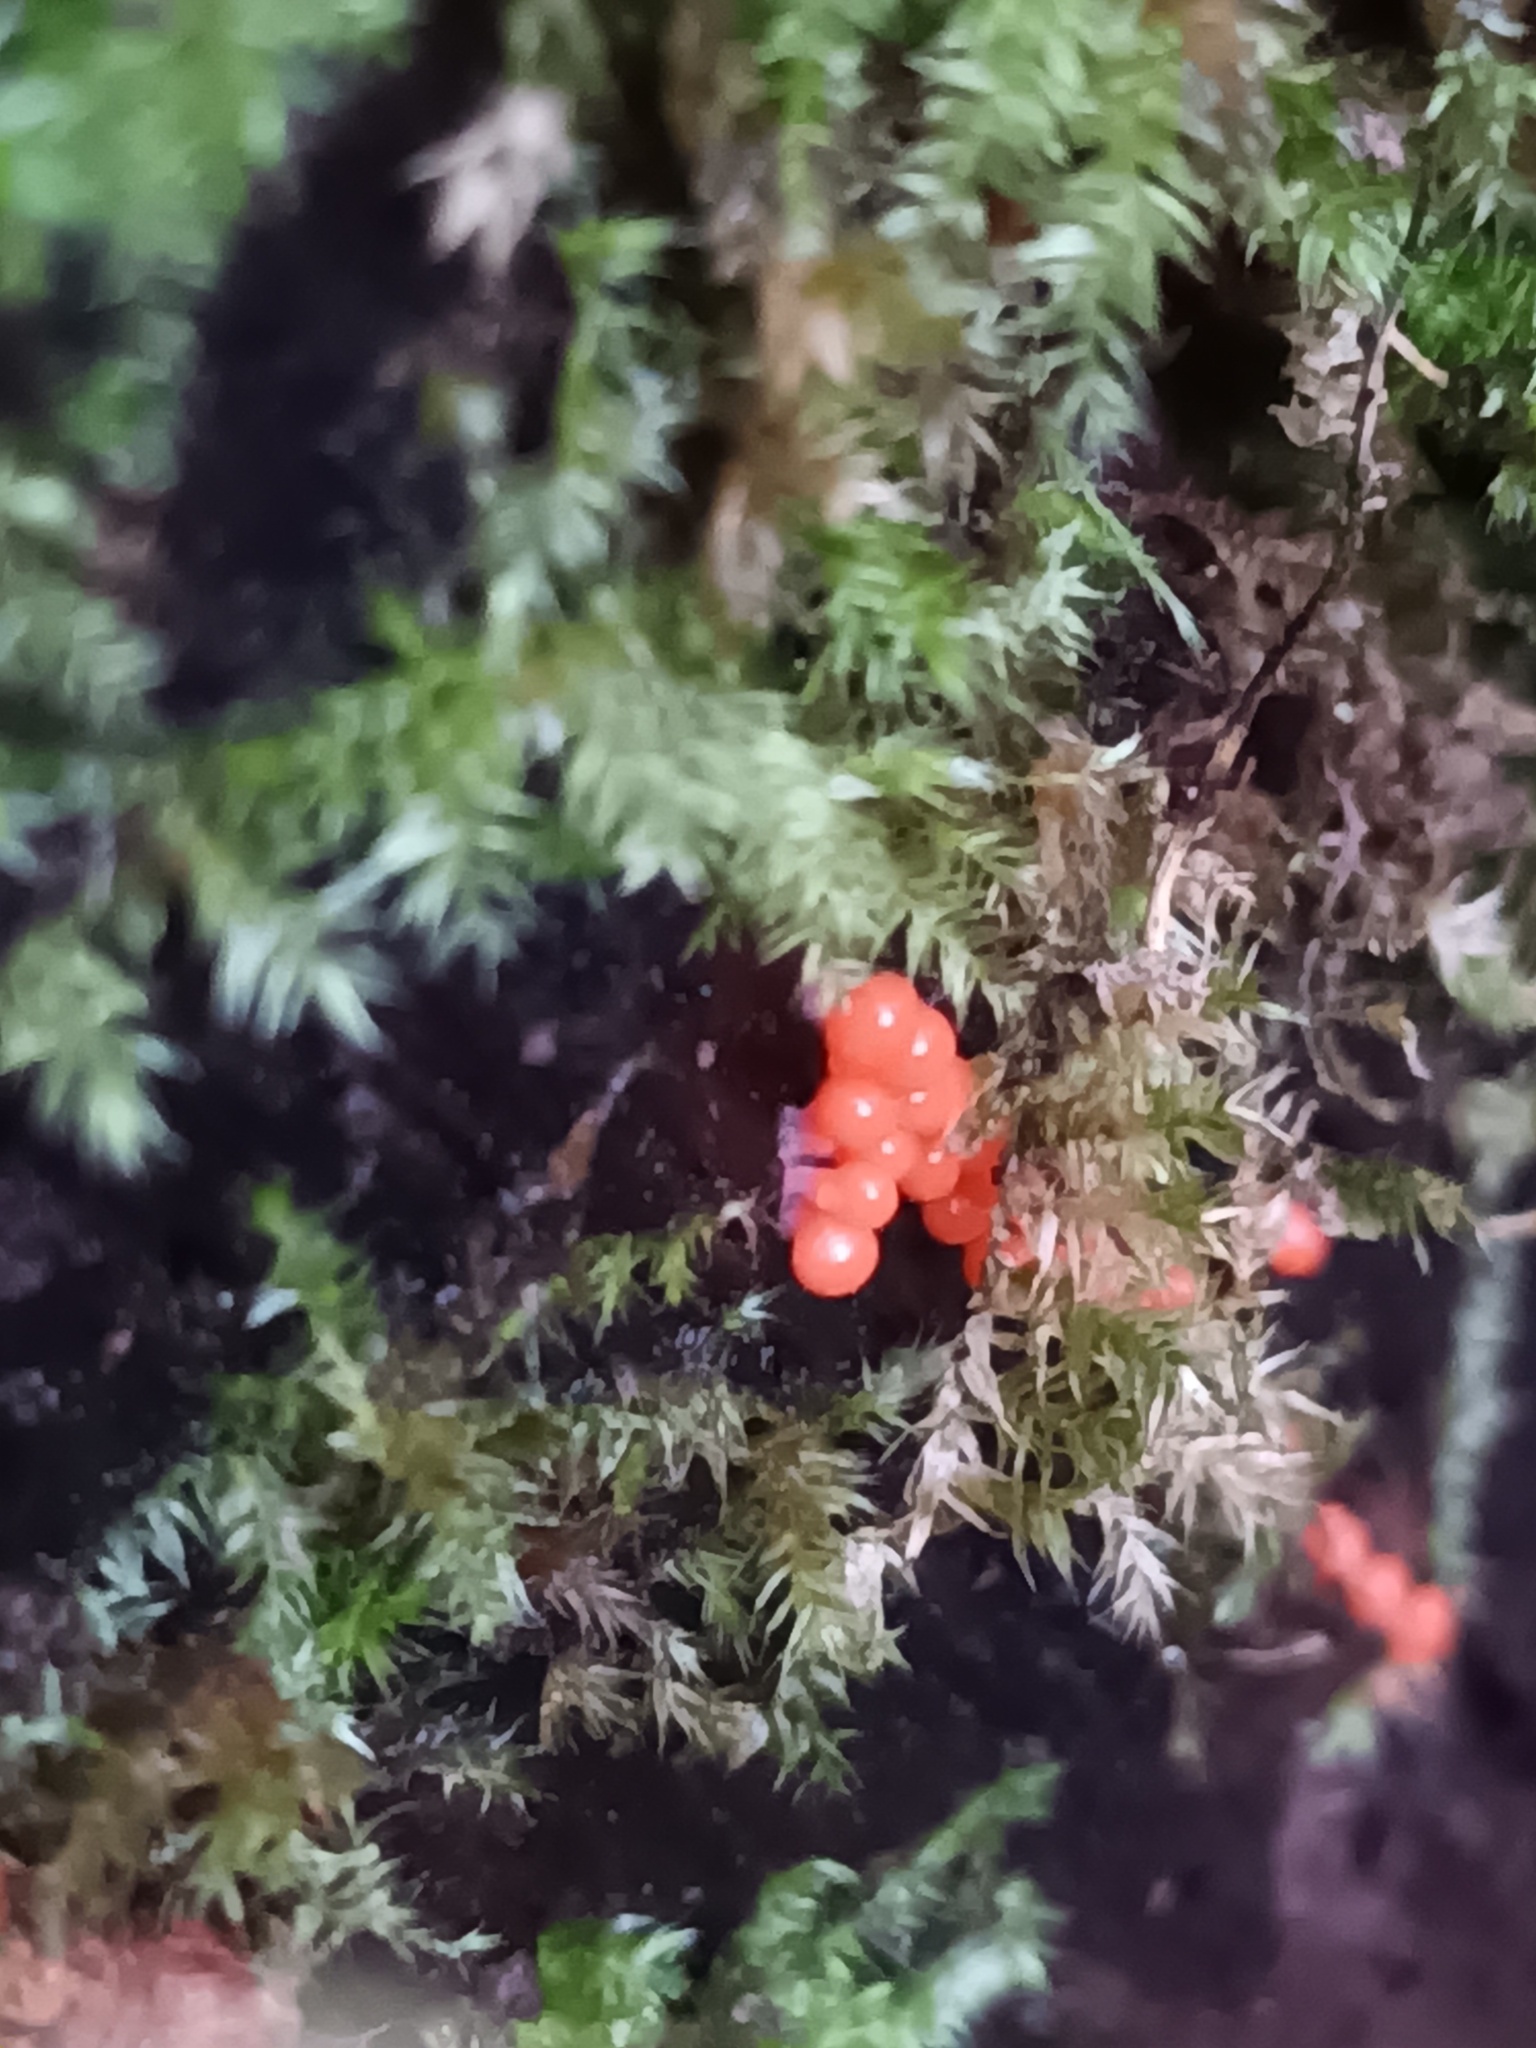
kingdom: Protozoa
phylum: Mycetozoa
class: Myxomycetes
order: Trichiales
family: Arcyriaceae
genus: Hemitrichia
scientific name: Hemitrichia decipiens
